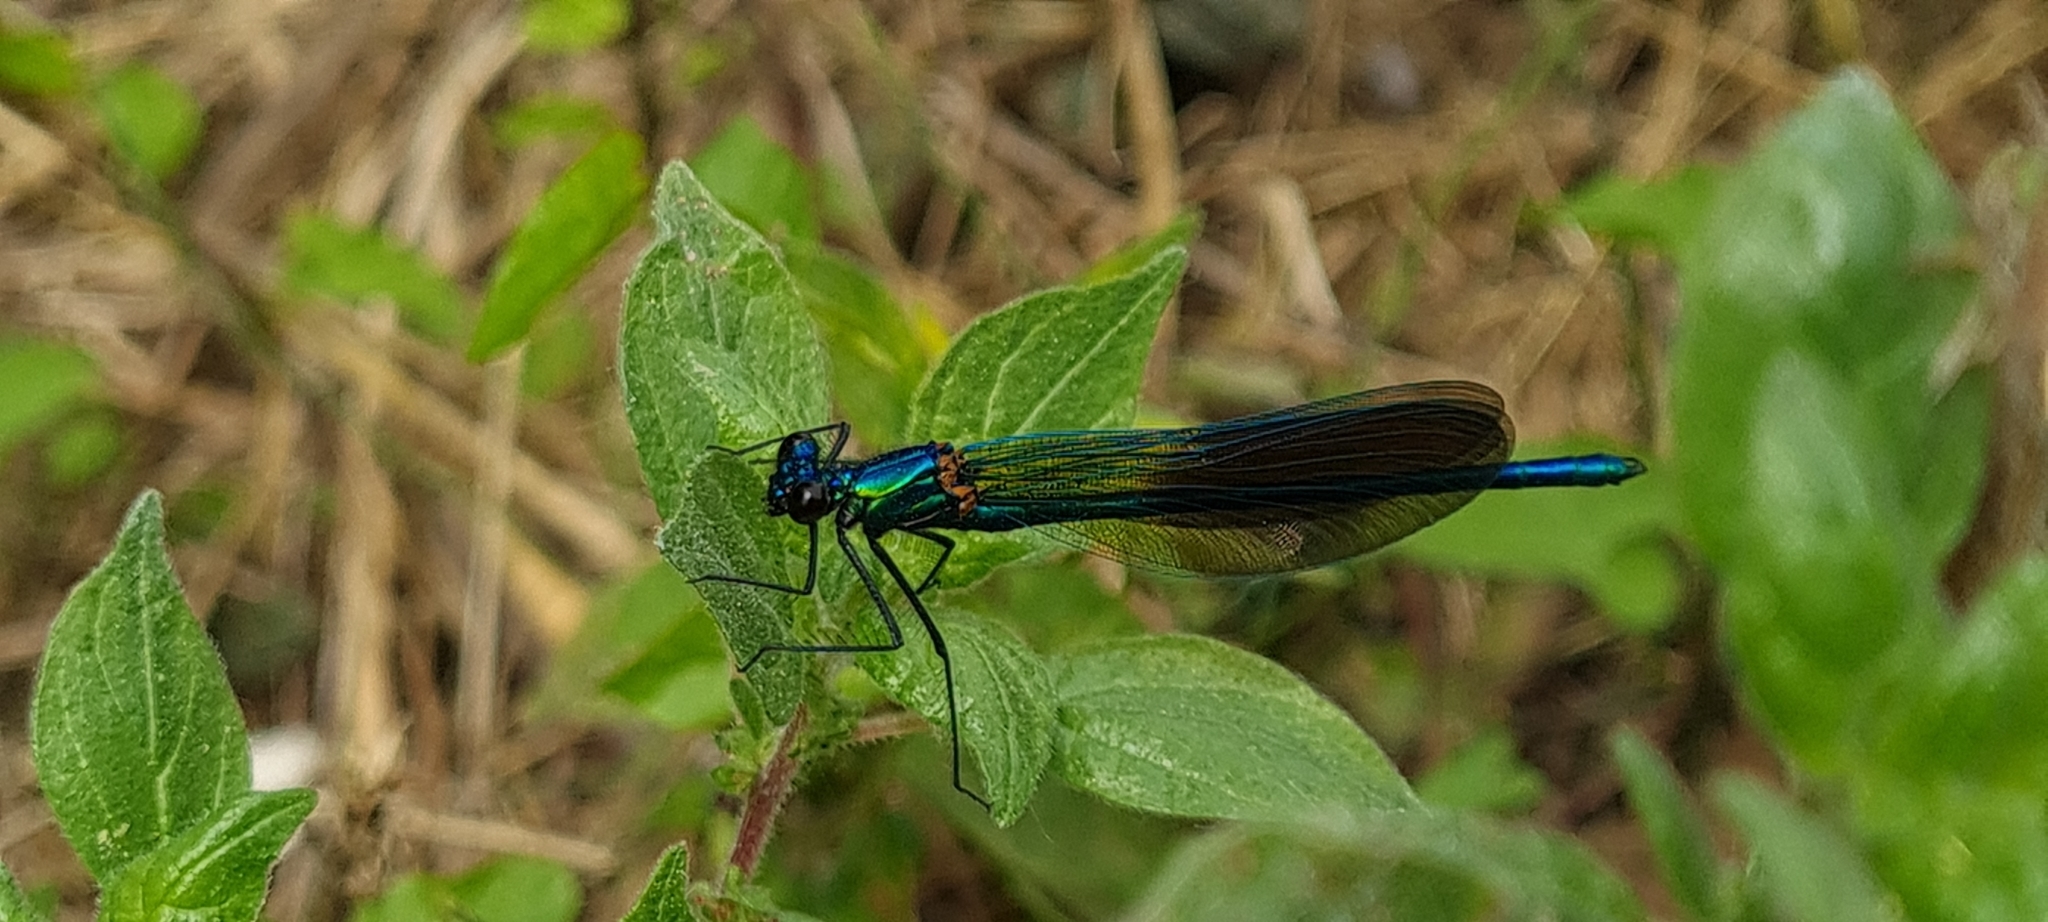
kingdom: Animalia
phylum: Arthropoda
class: Insecta
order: Odonata
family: Calopterygidae
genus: Calopteryx
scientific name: Calopteryx xanthostoma
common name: Western demoiselle
